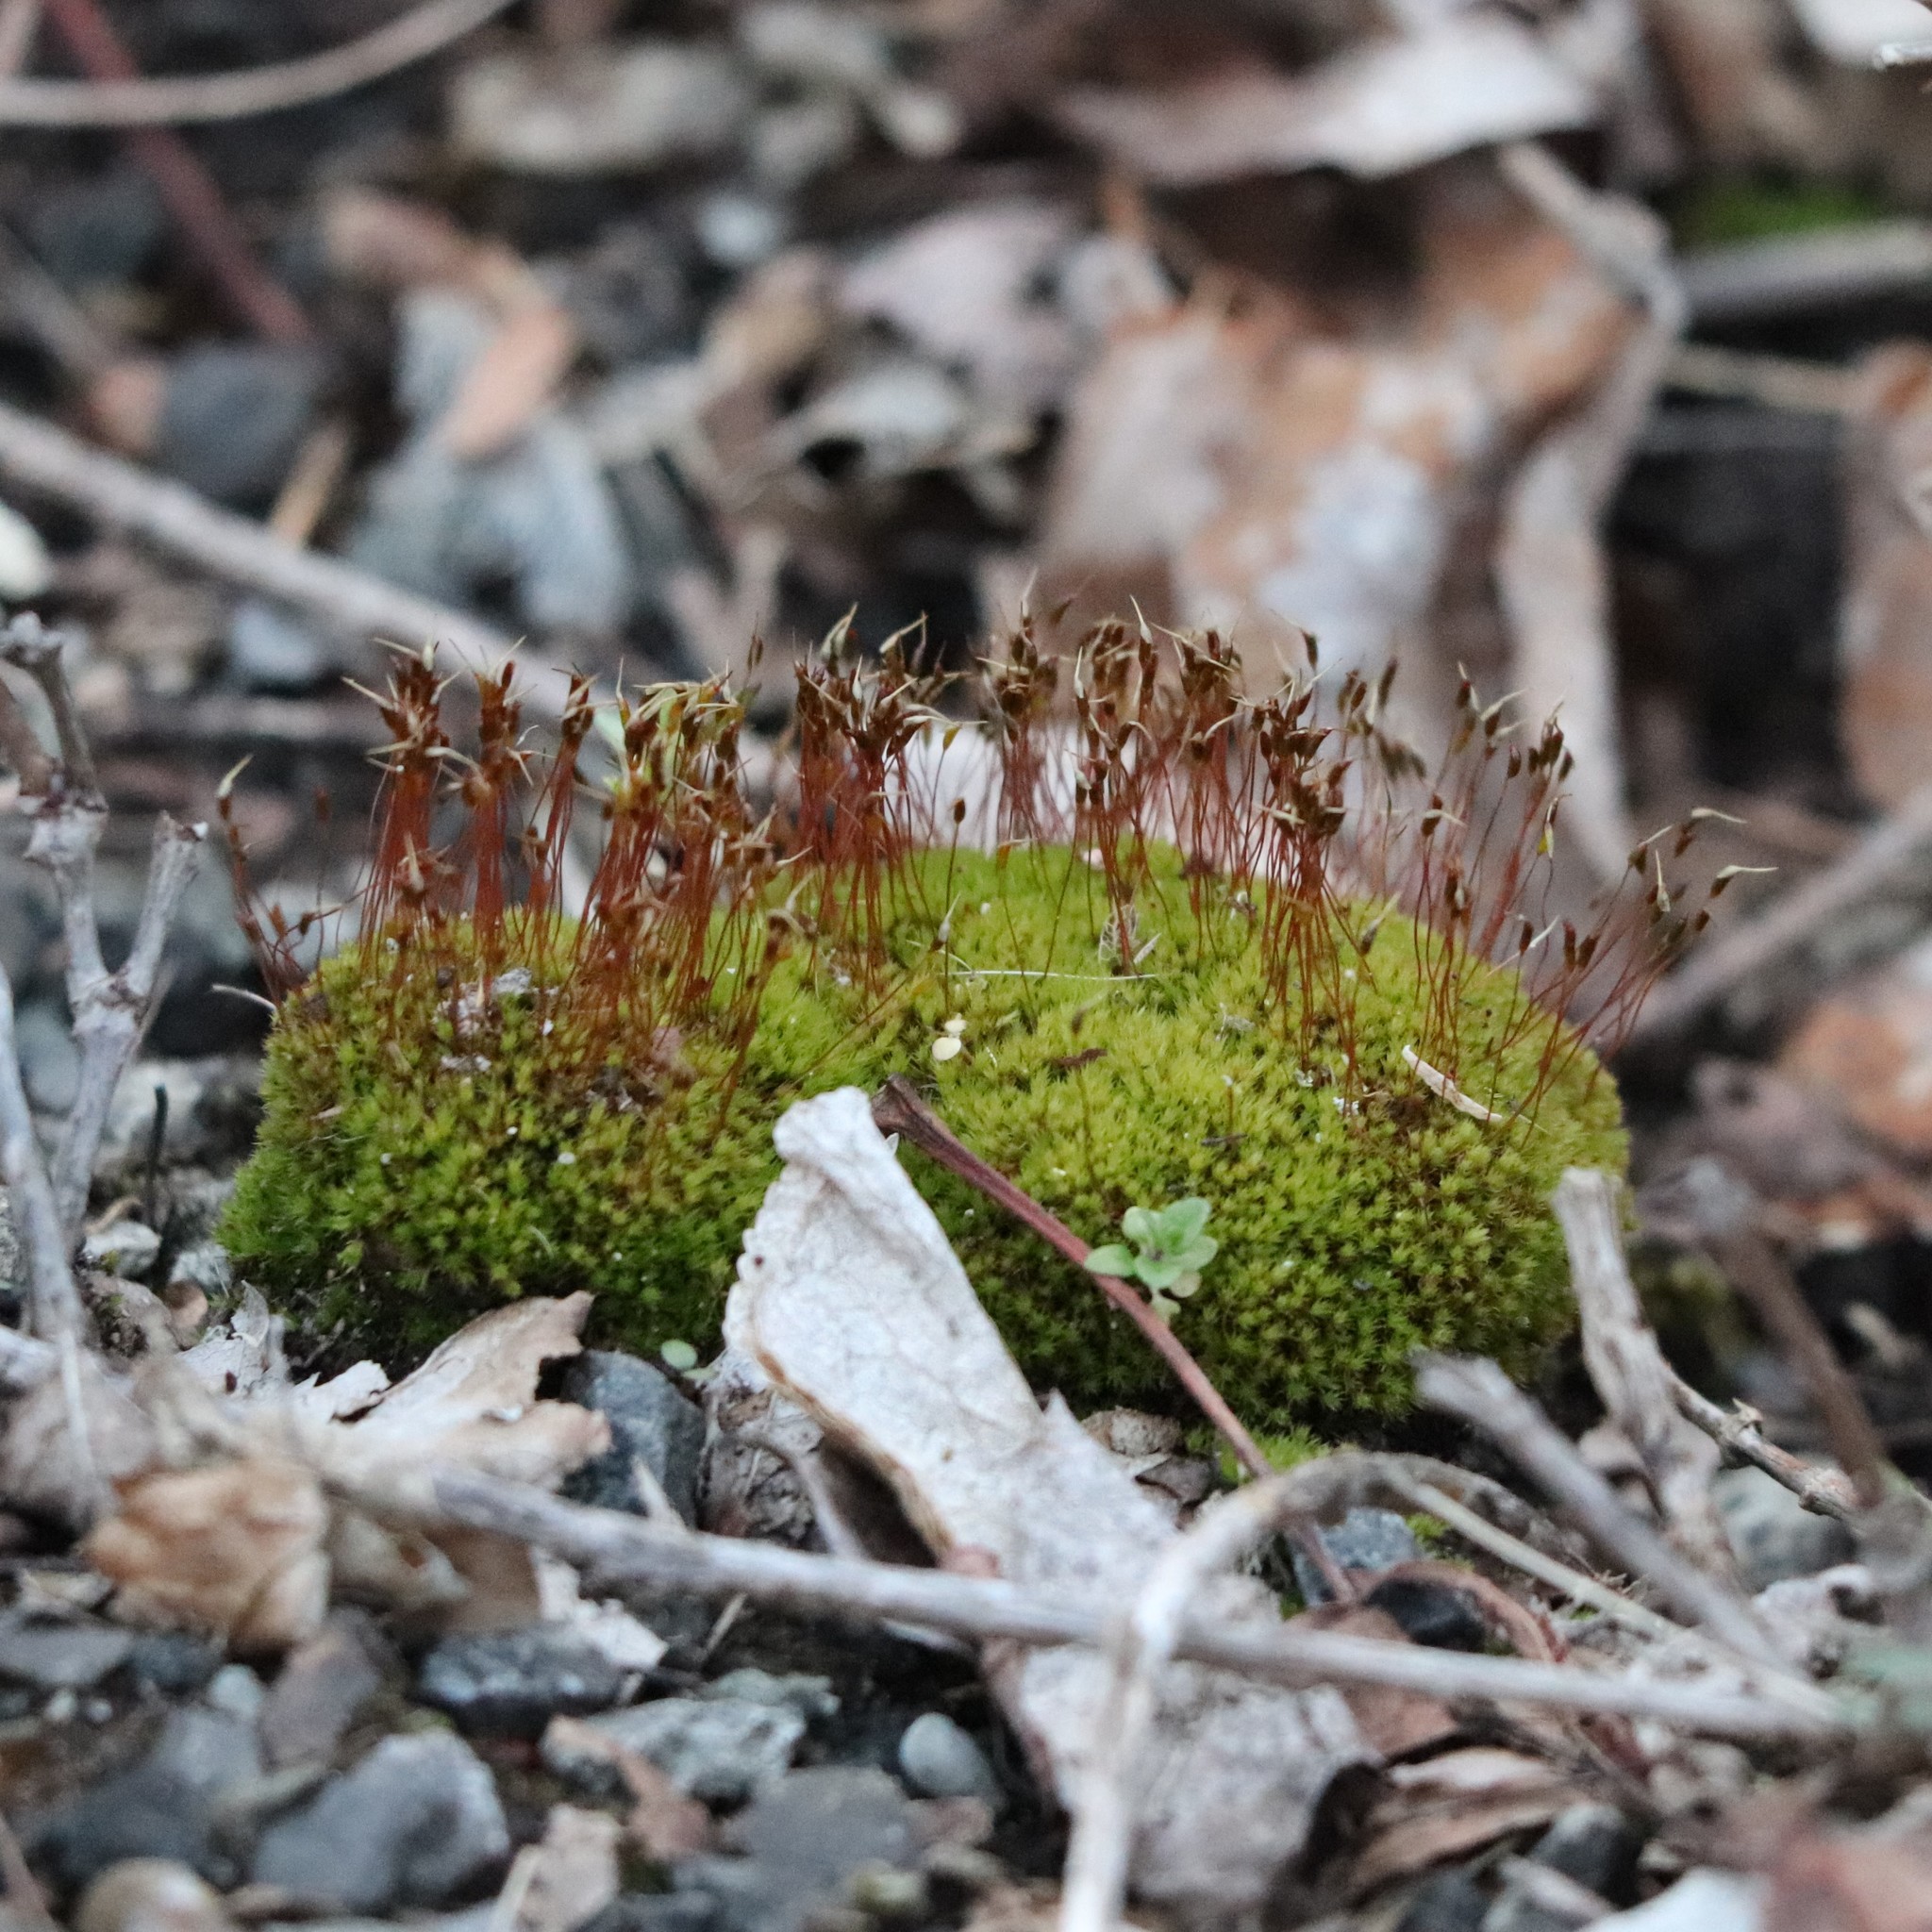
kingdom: Plantae
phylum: Bryophyta
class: Bryopsida
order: Dicranales
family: Ditrichaceae
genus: Ceratodon
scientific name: Ceratodon purpureus
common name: Redshank
